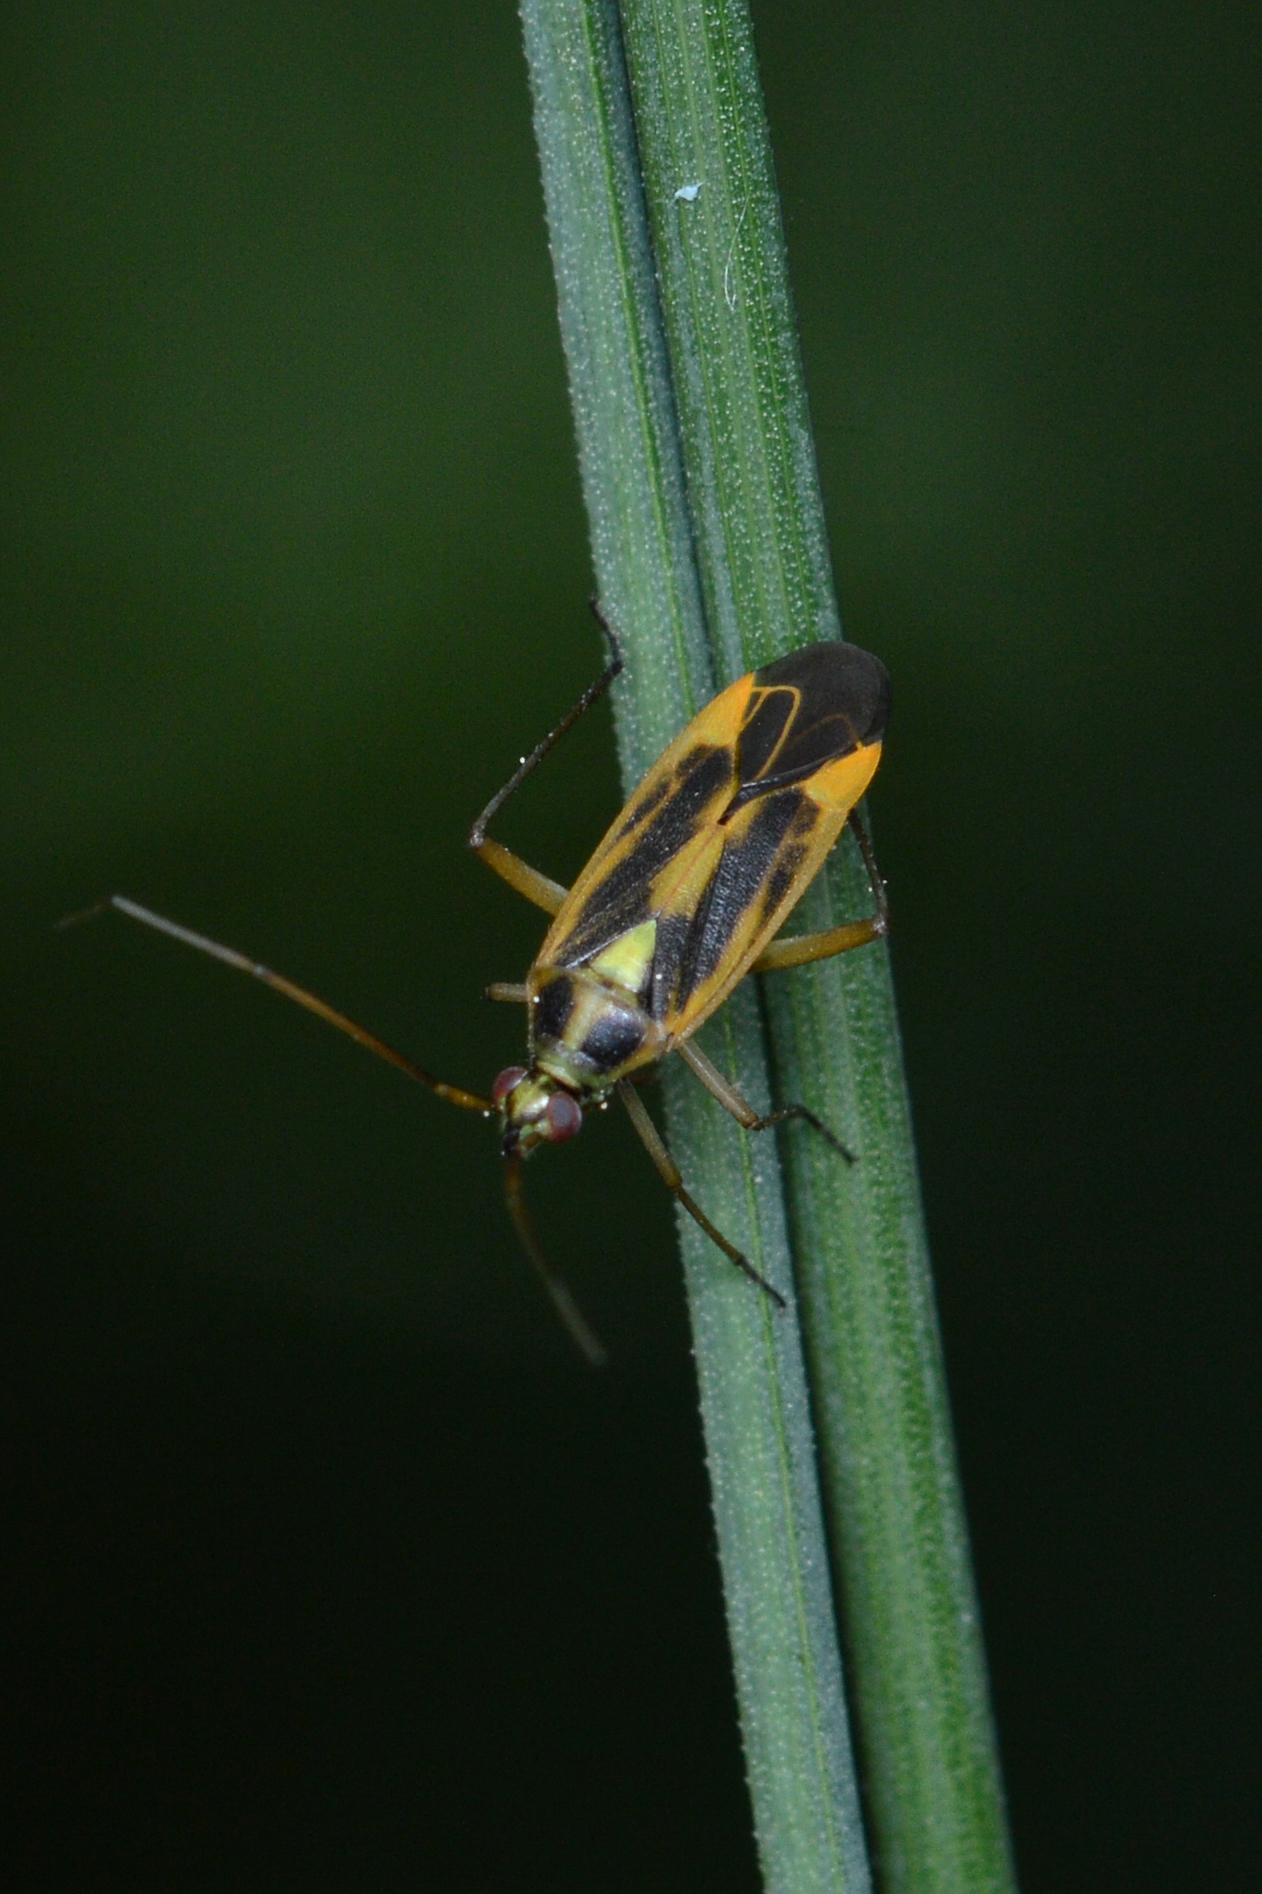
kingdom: Animalia
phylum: Arthropoda
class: Insecta
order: Hemiptera
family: Miridae
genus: Stenotus
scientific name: Stenotus binotatus
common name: Plant bug
